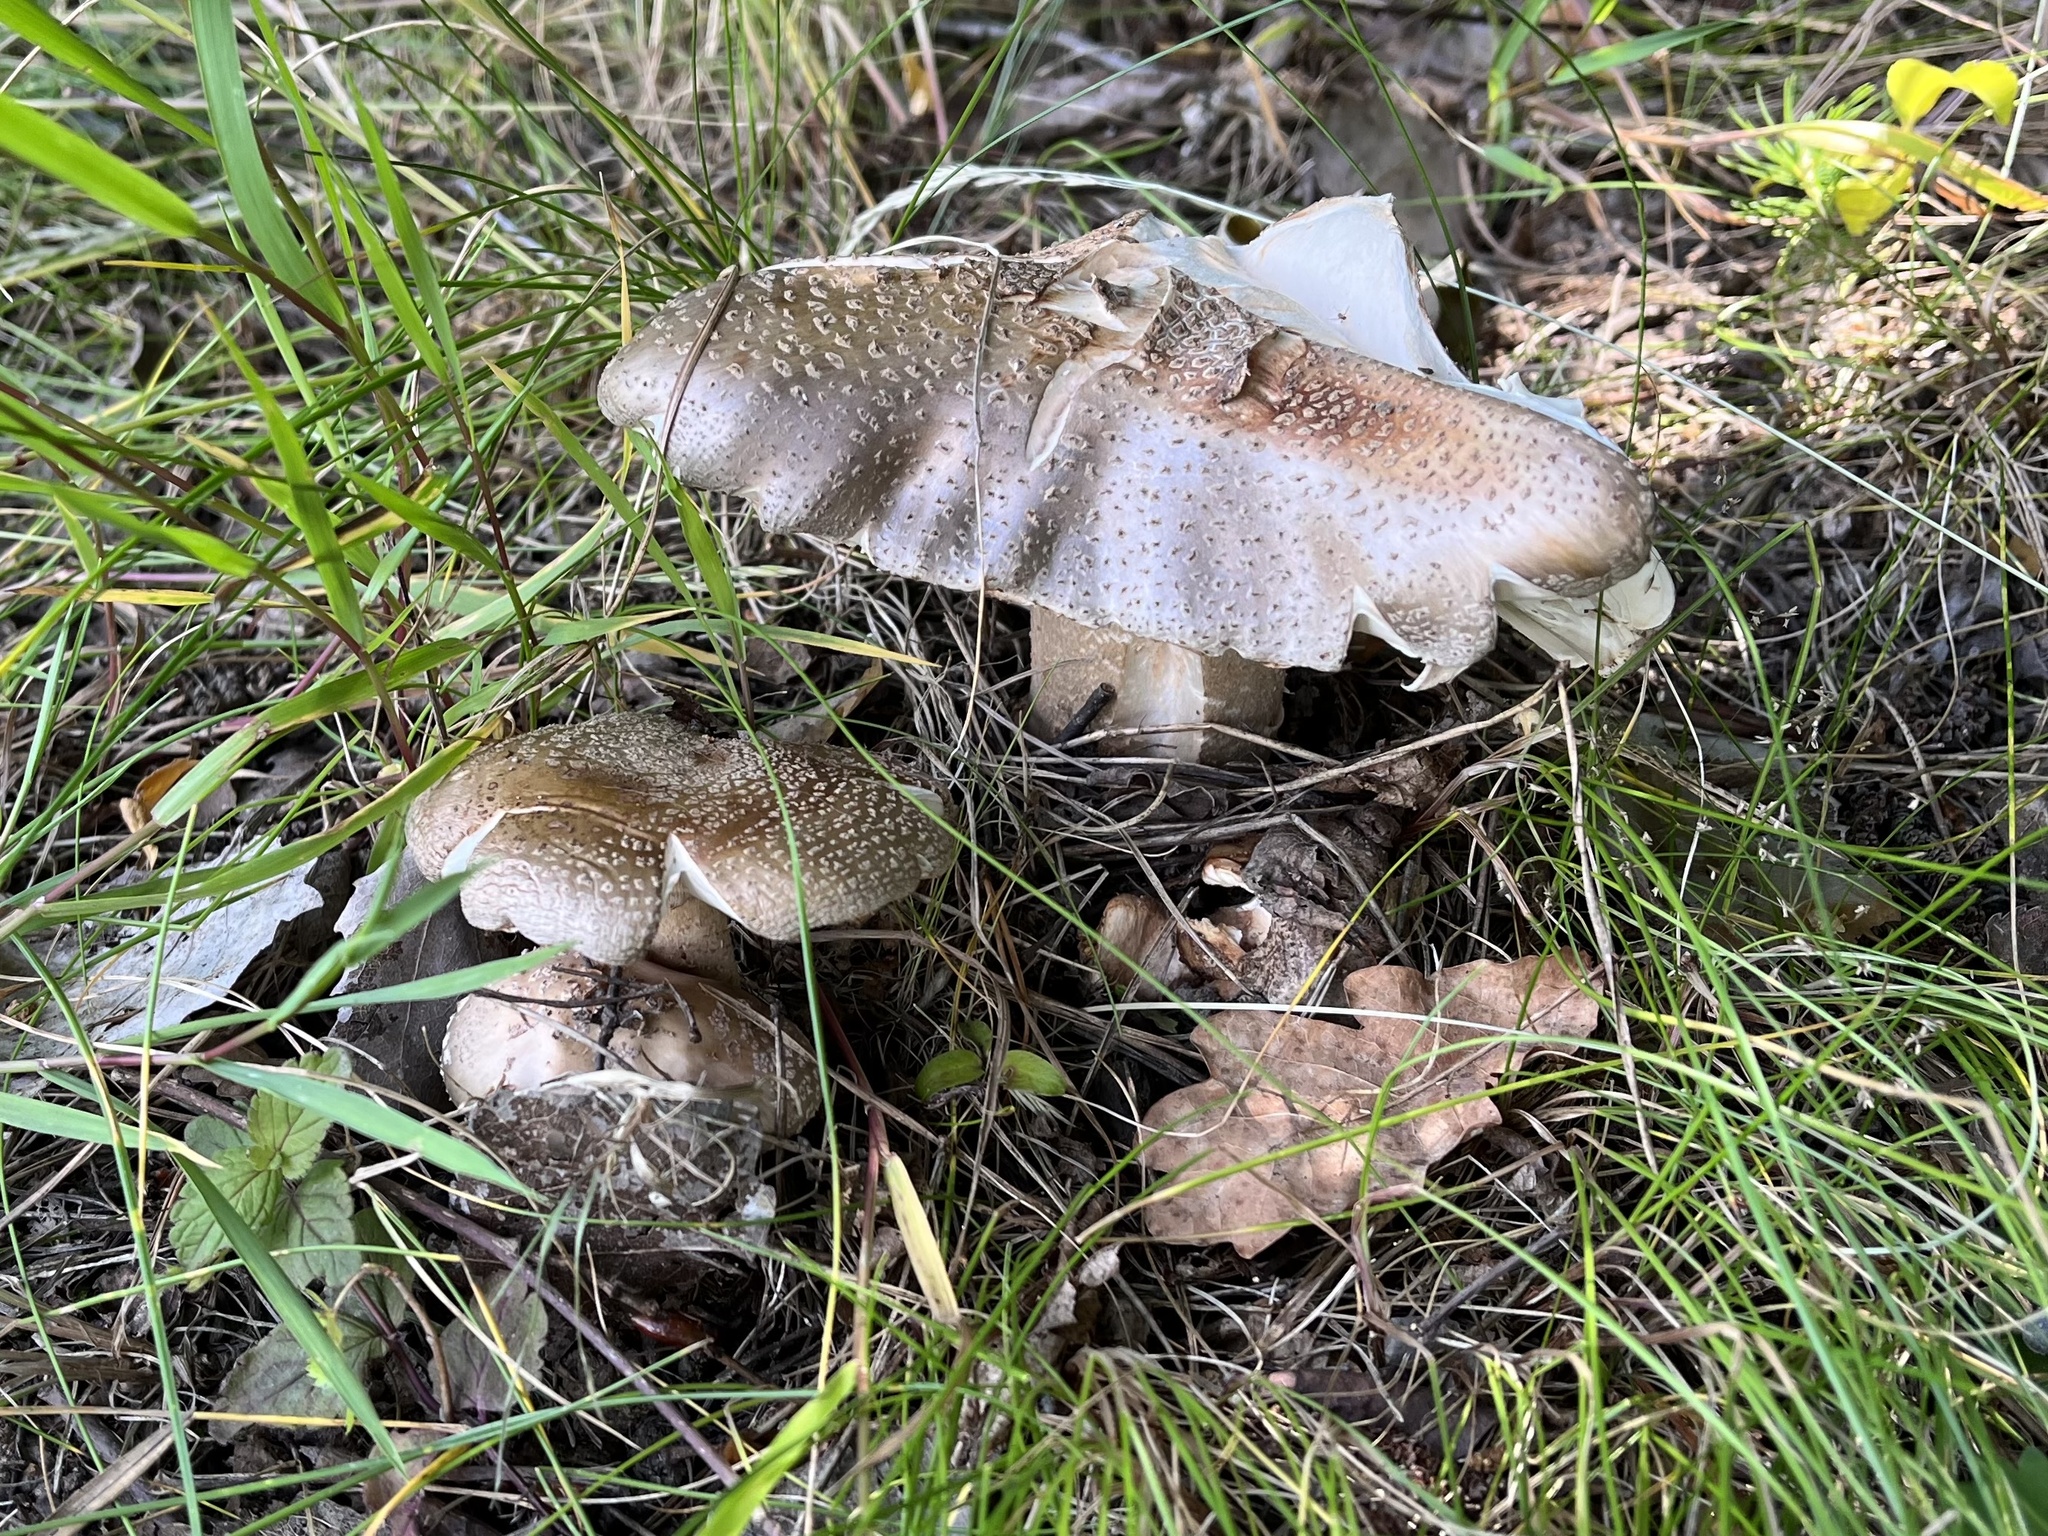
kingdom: Fungi
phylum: Basidiomycota
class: Agaricomycetes
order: Agaricales
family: Amanitaceae
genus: Amanita
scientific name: Amanita rubescens
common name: Blusher
